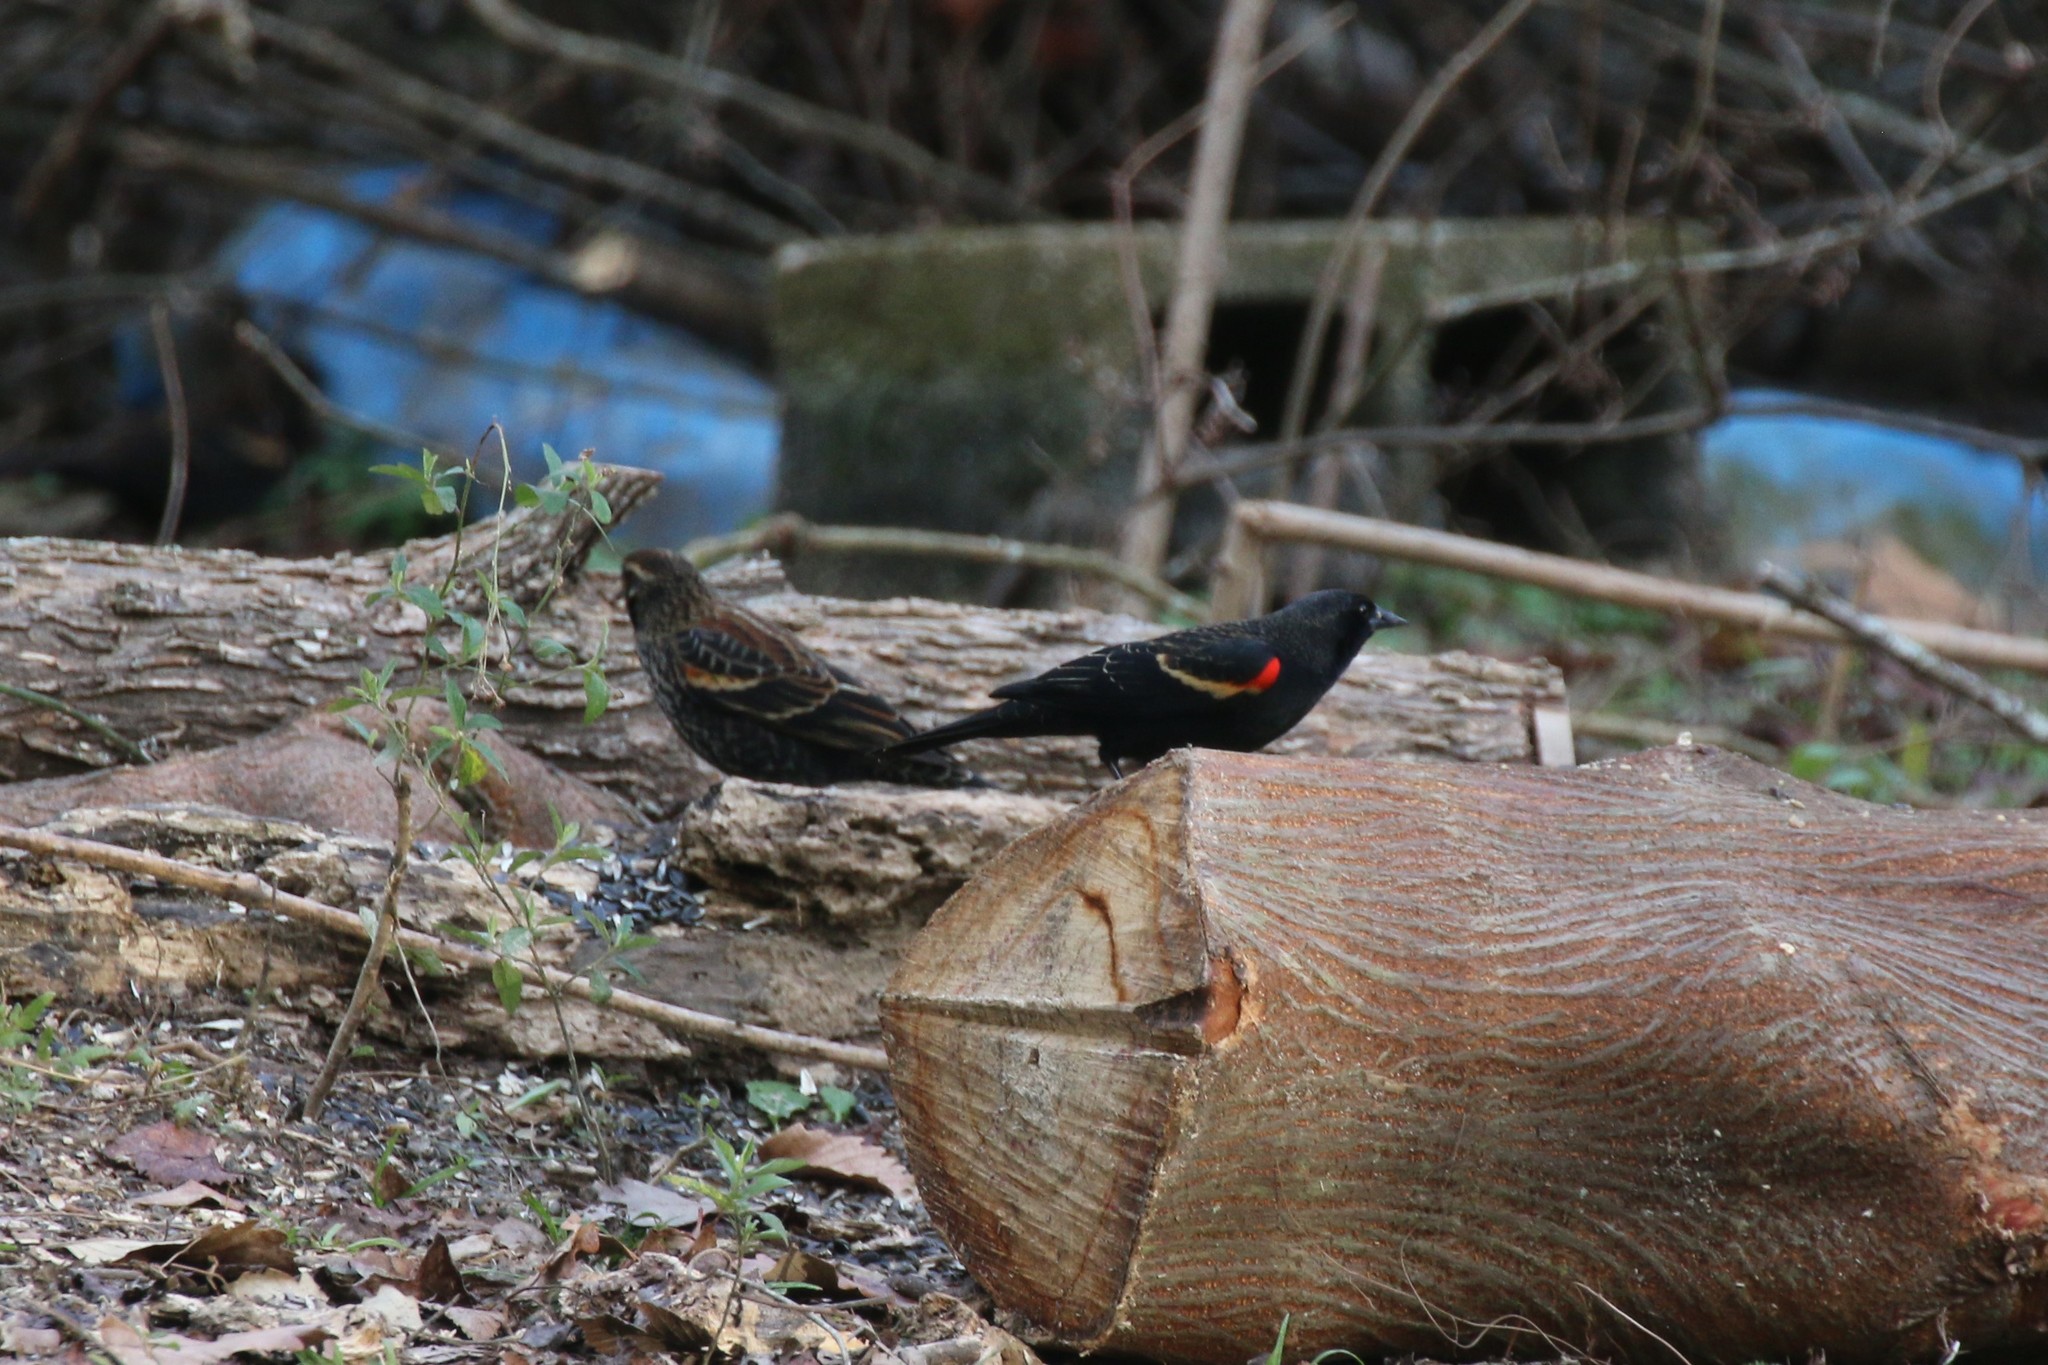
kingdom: Animalia
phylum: Chordata
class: Aves
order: Passeriformes
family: Icteridae
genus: Agelaius
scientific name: Agelaius phoeniceus
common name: Red-winged blackbird
